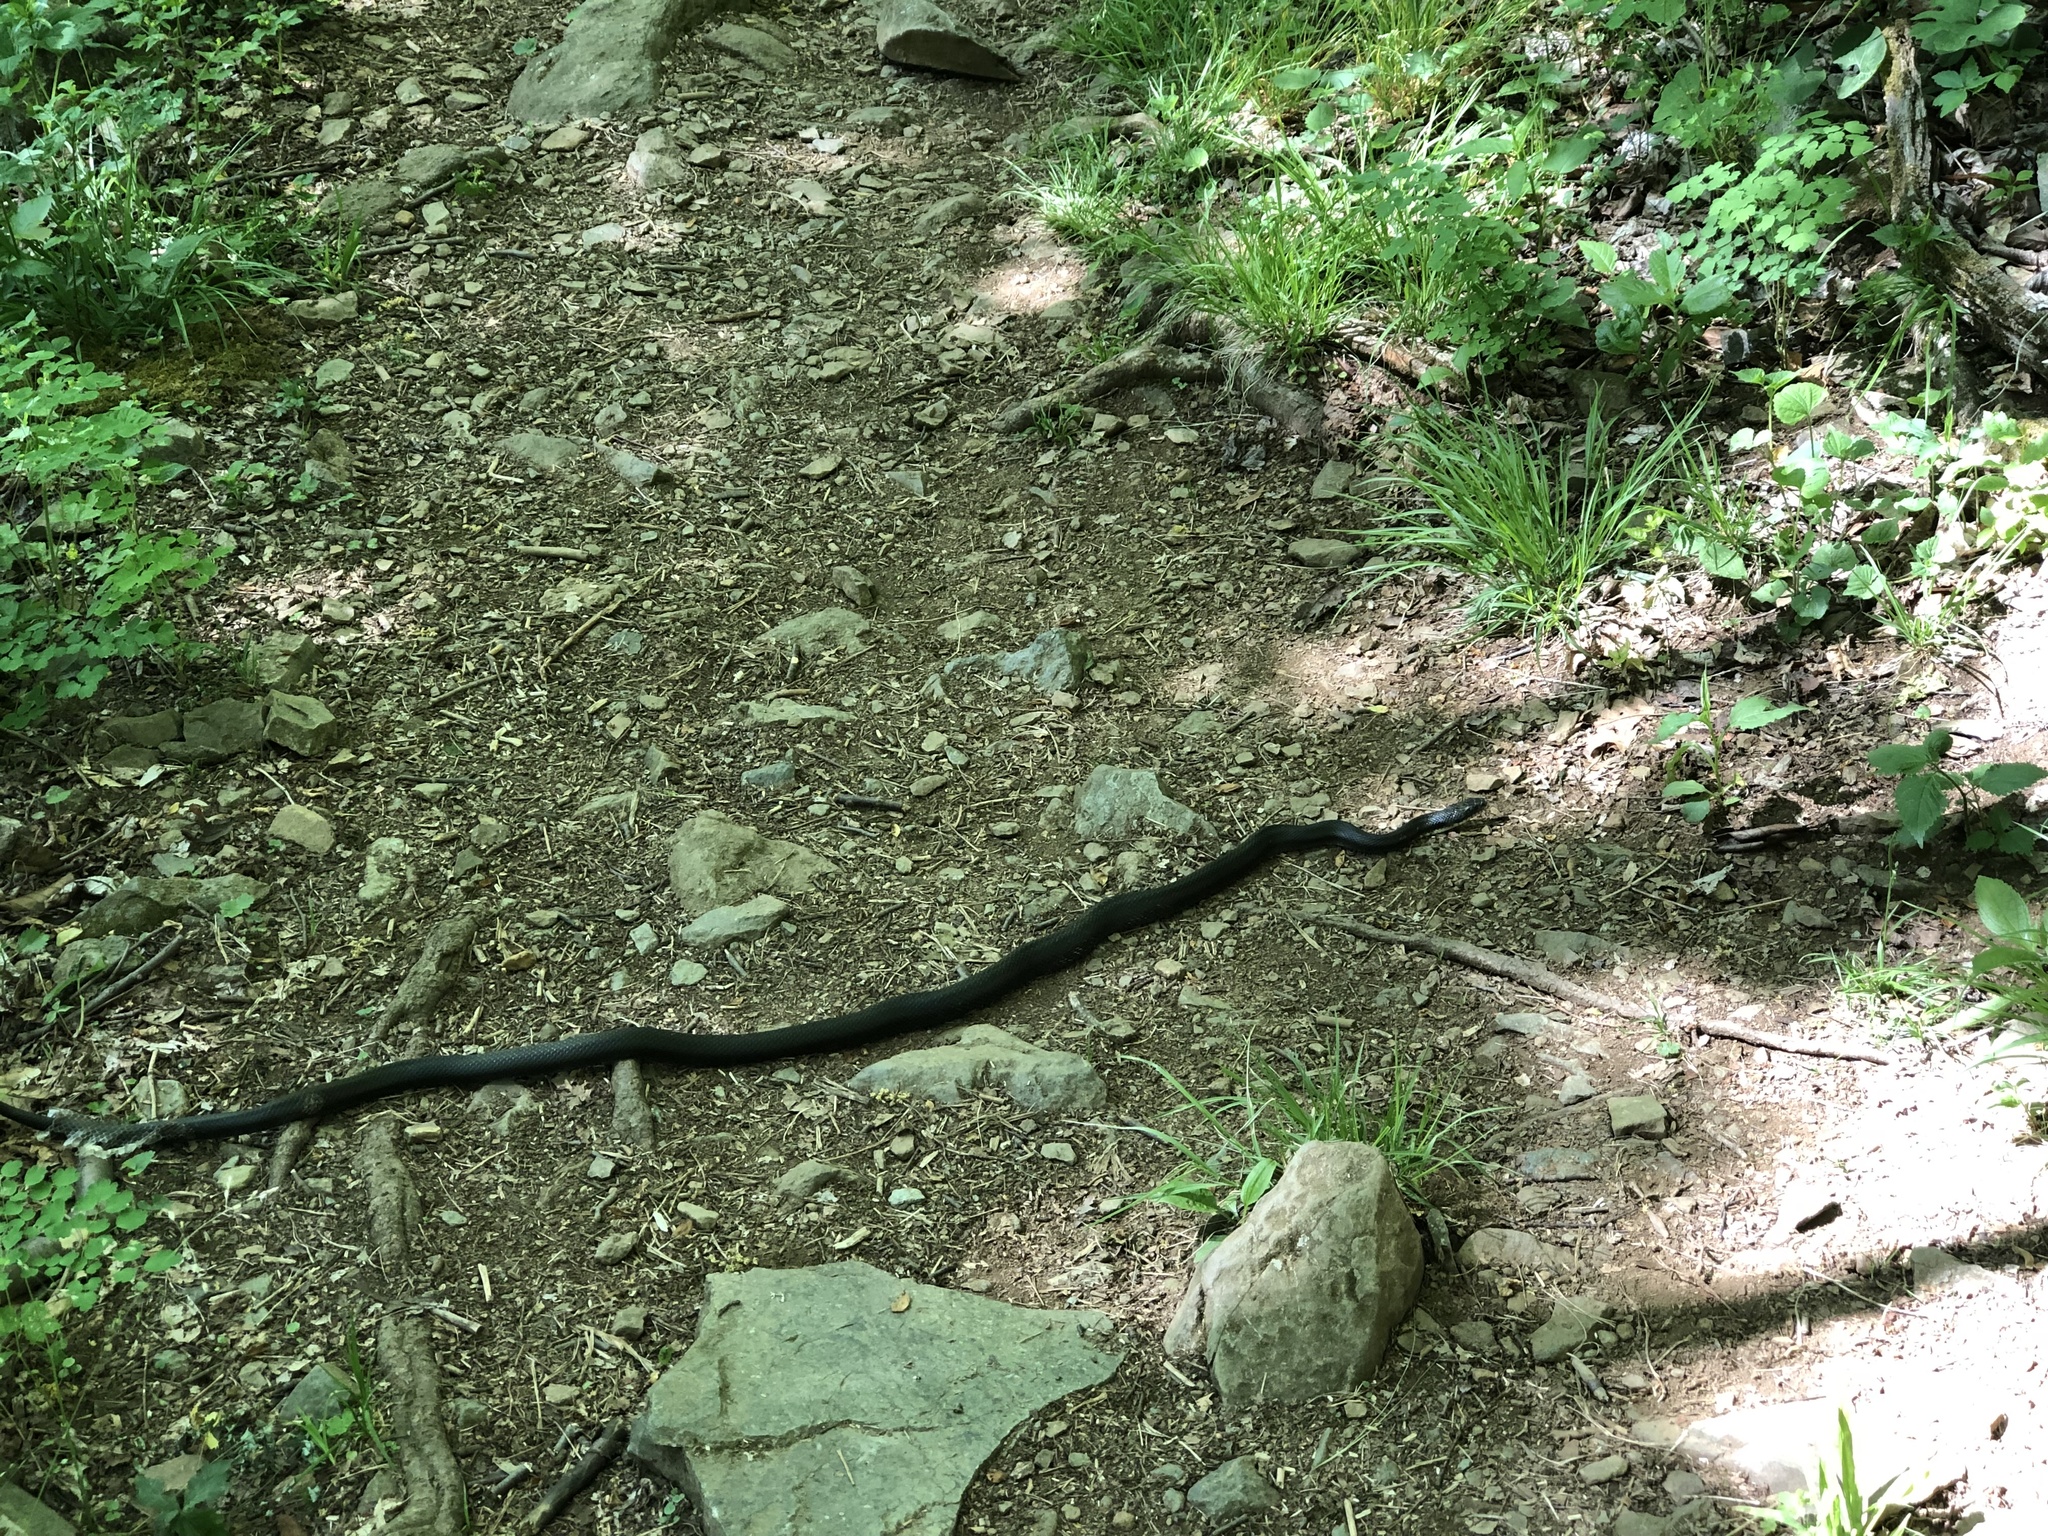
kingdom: Animalia
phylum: Chordata
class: Squamata
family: Colubridae
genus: Pantherophis
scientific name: Pantherophis alleghaniensis
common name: Eastern rat snake
